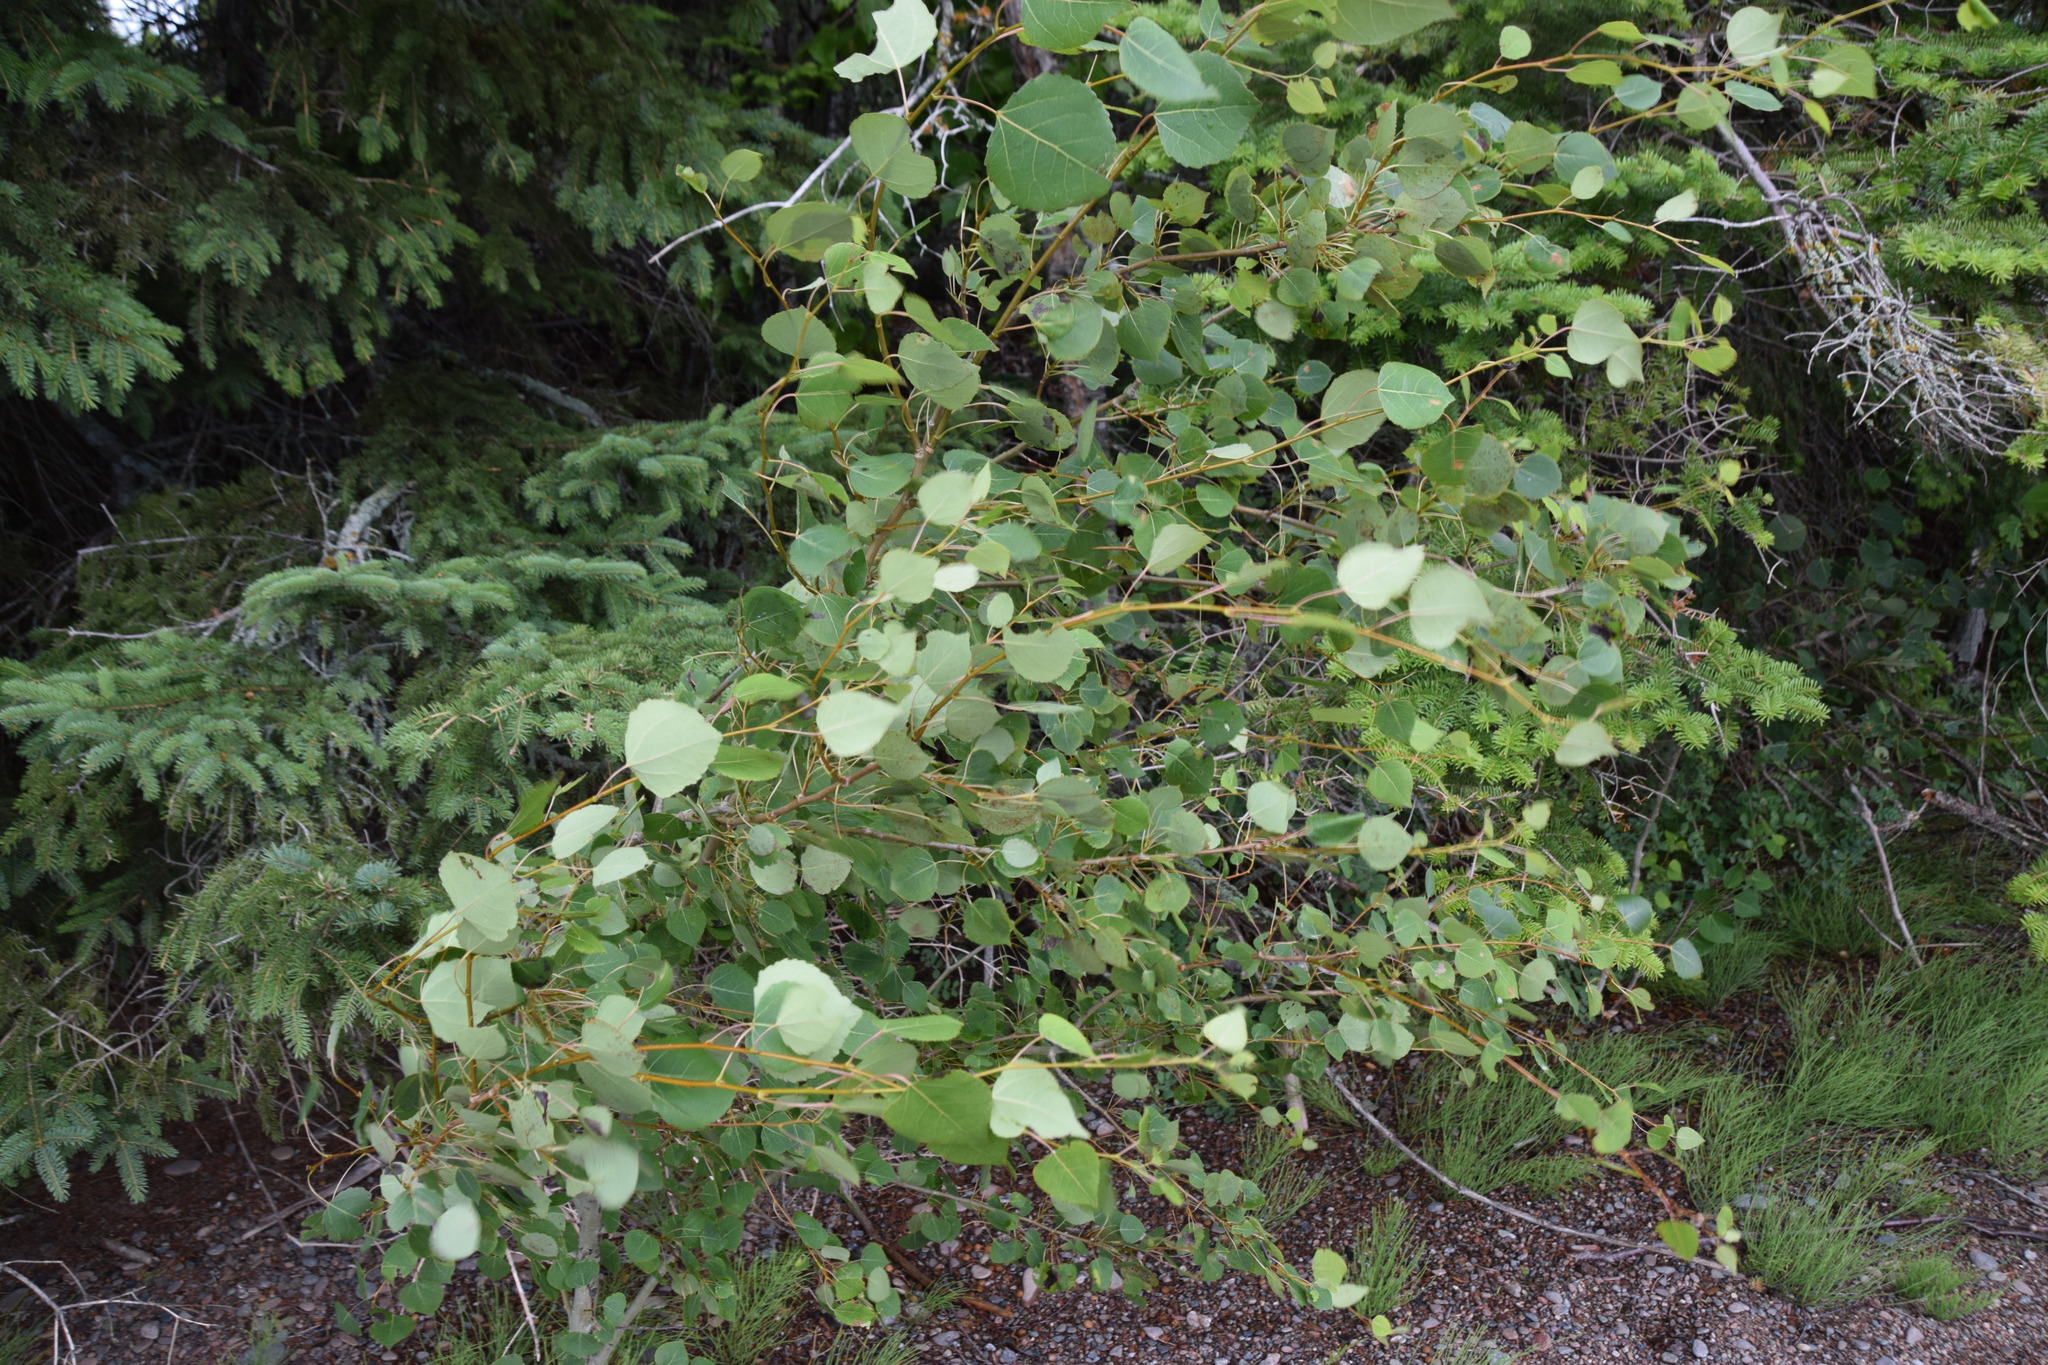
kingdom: Plantae
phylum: Tracheophyta
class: Magnoliopsida
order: Malpighiales
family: Salicaceae
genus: Populus
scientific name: Populus tremuloides
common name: Quaking aspen
